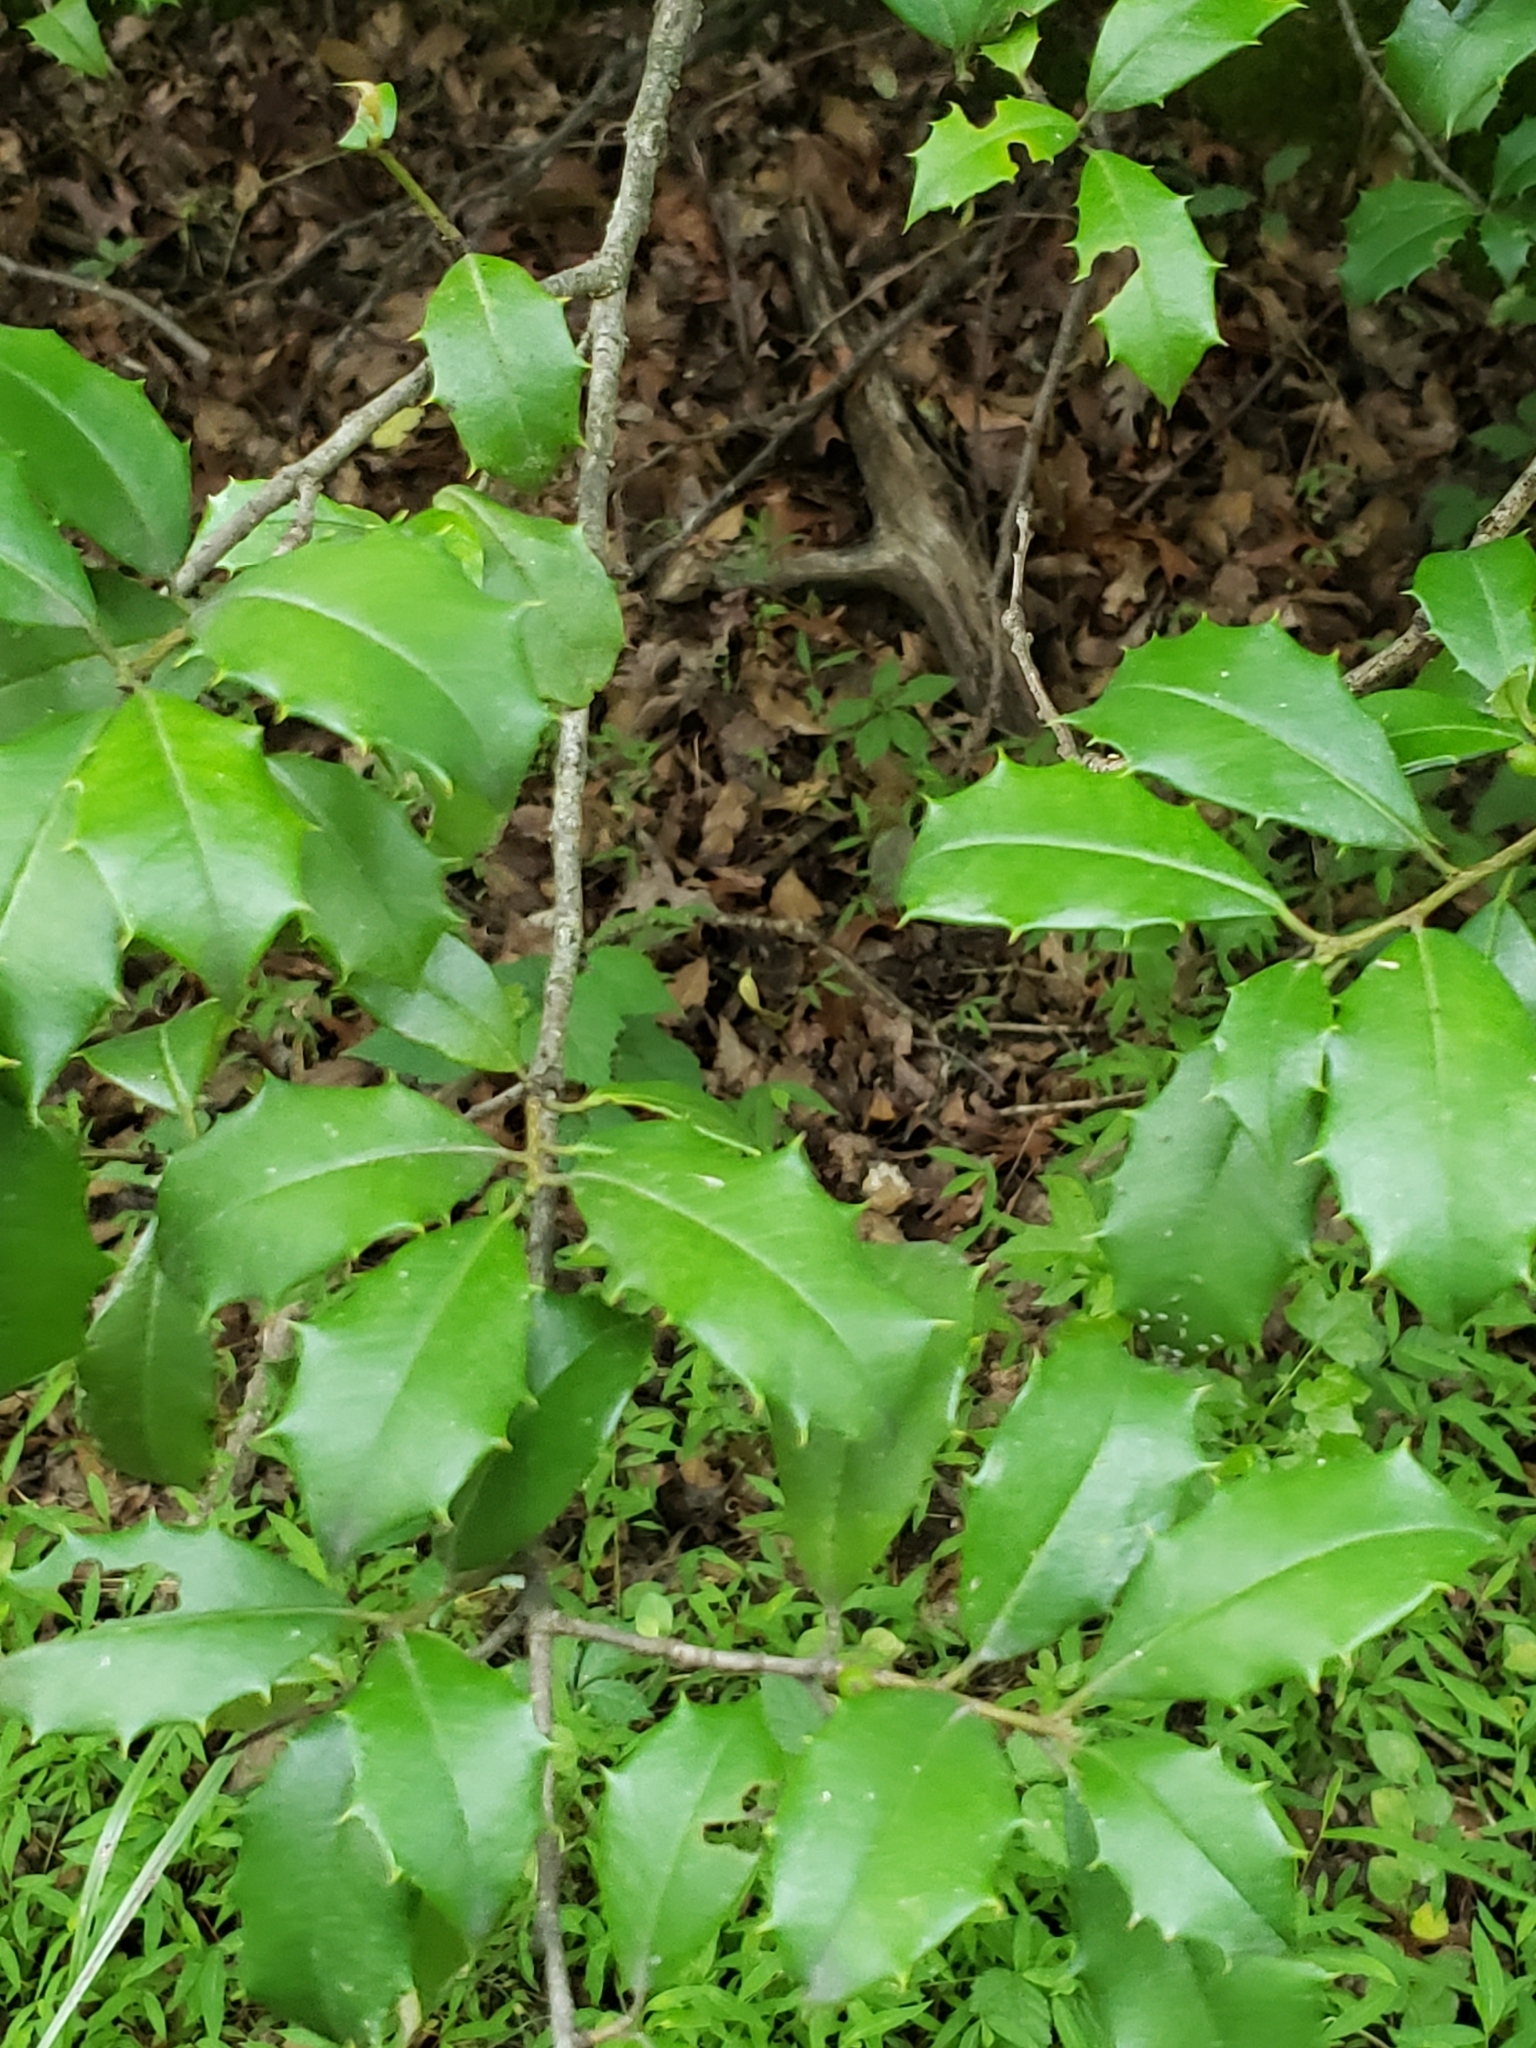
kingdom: Plantae
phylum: Tracheophyta
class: Magnoliopsida
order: Aquifoliales
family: Aquifoliaceae
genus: Ilex
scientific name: Ilex opaca
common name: American holly
